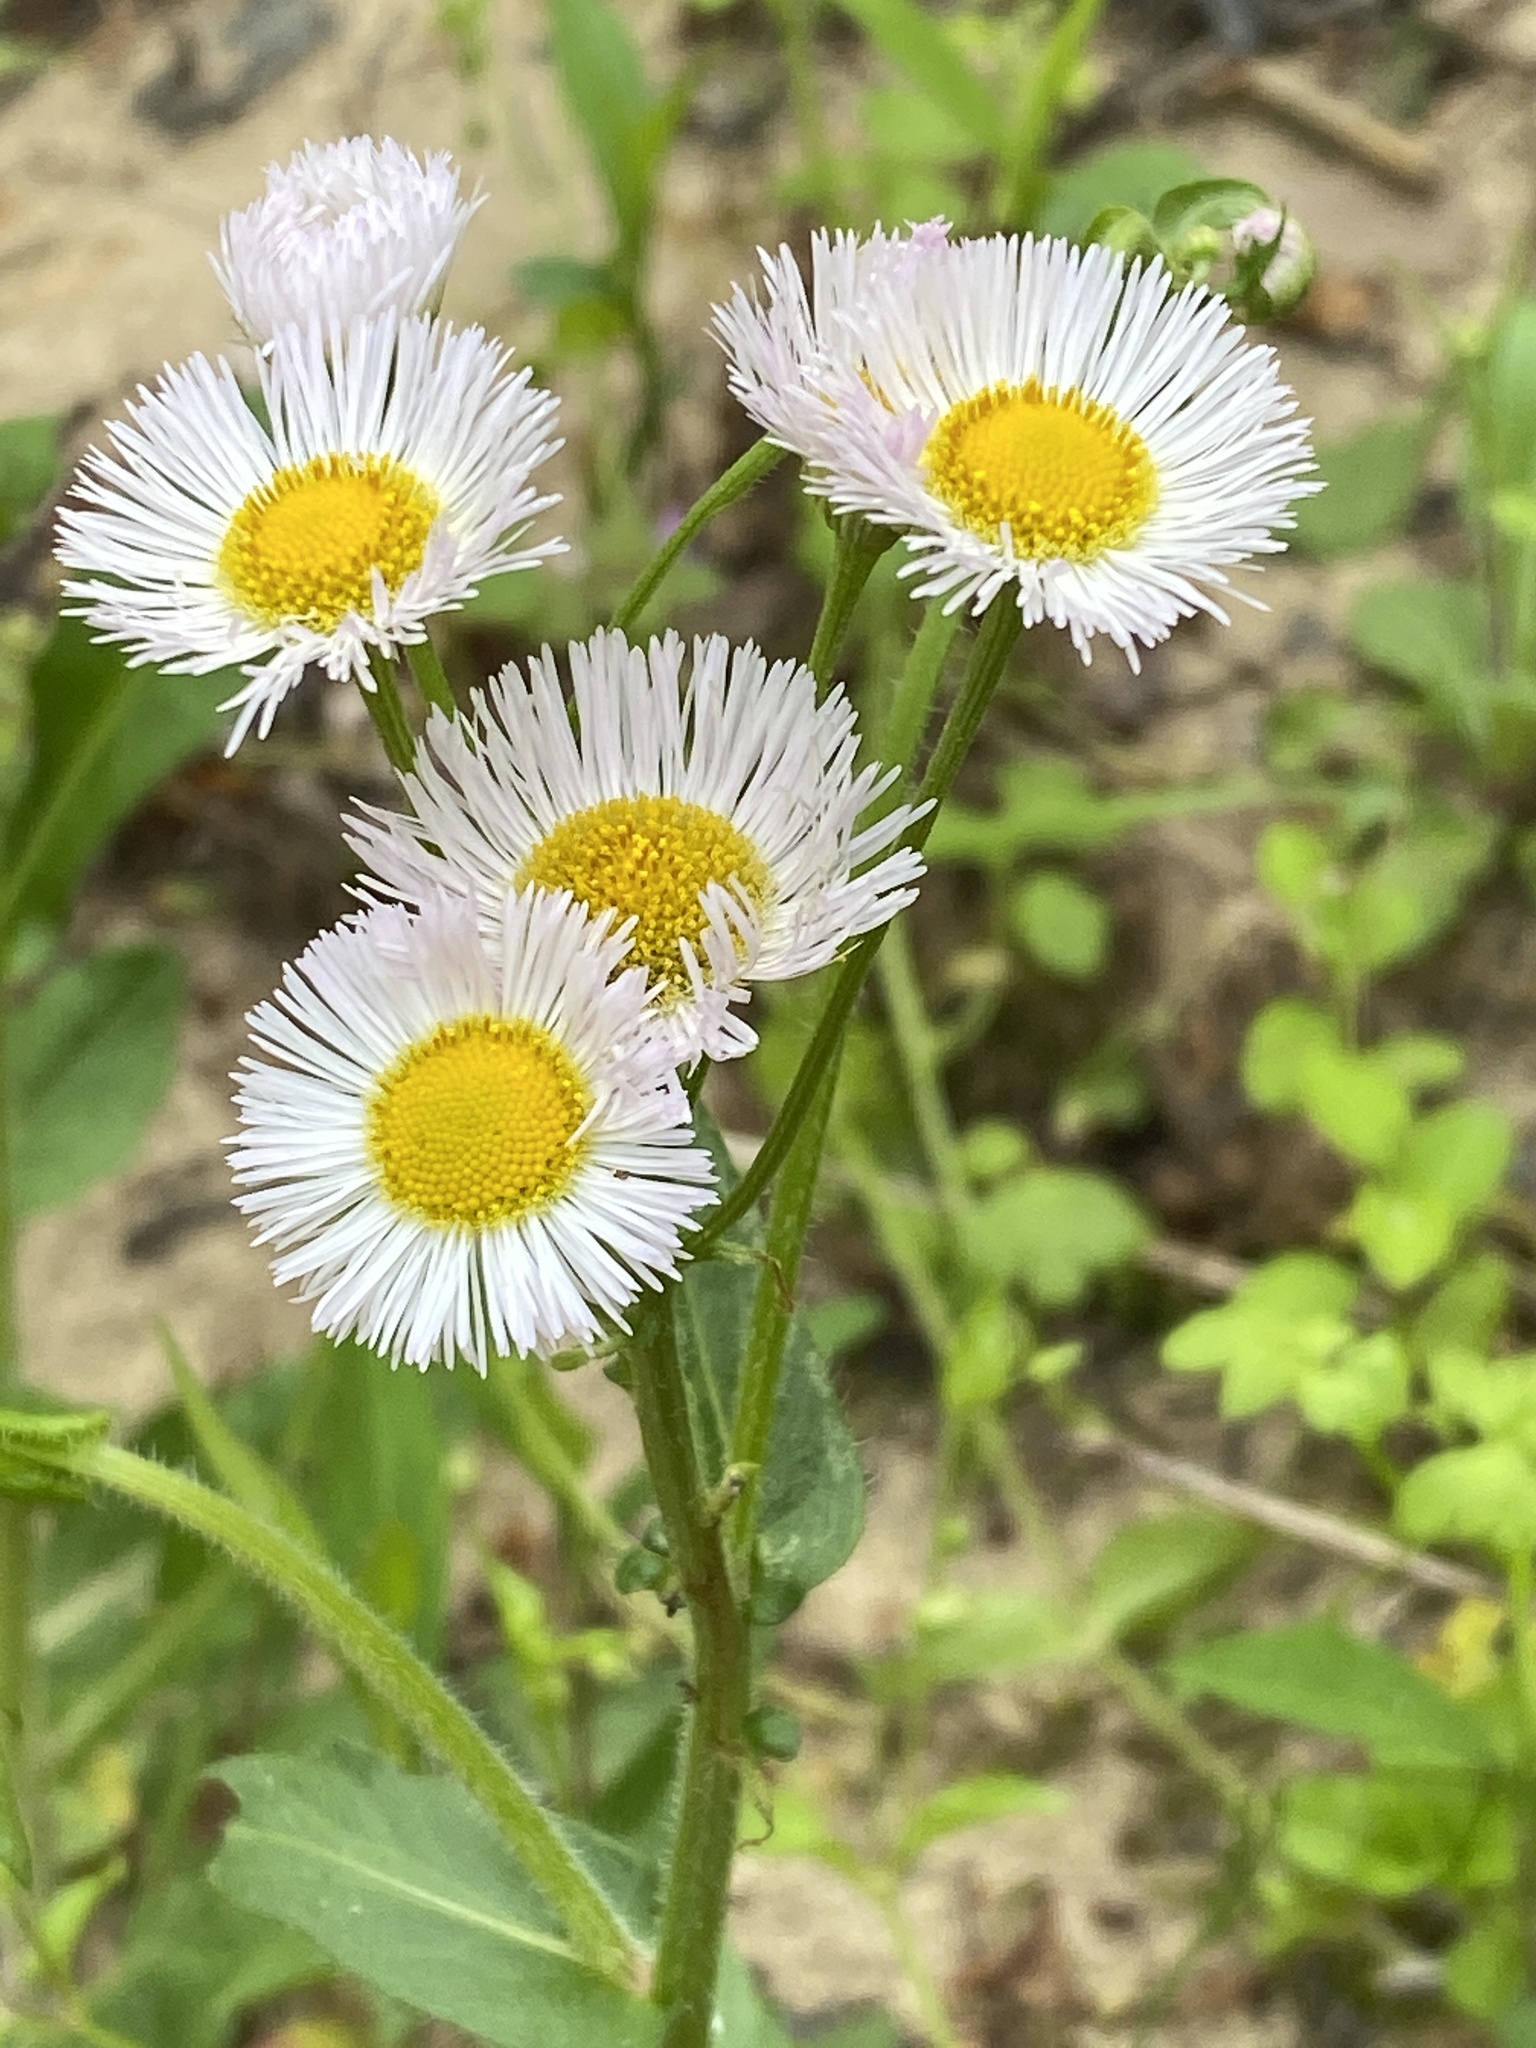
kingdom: Plantae
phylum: Tracheophyta
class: Magnoliopsida
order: Asterales
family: Asteraceae
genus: Erigeron
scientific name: Erigeron philadelphicus
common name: Robin's-plantain
